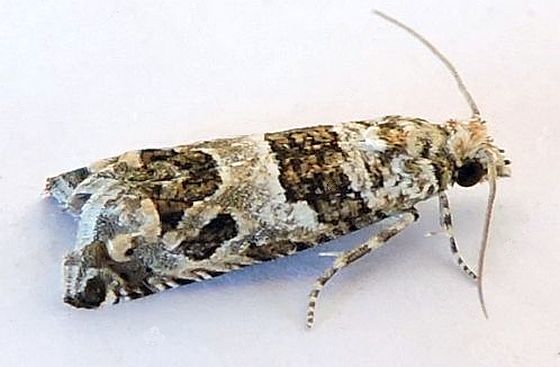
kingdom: Animalia
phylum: Arthropoda
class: Insecta
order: Lepidoptera
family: Tortricidae
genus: Sonia
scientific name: Sonia vovana
